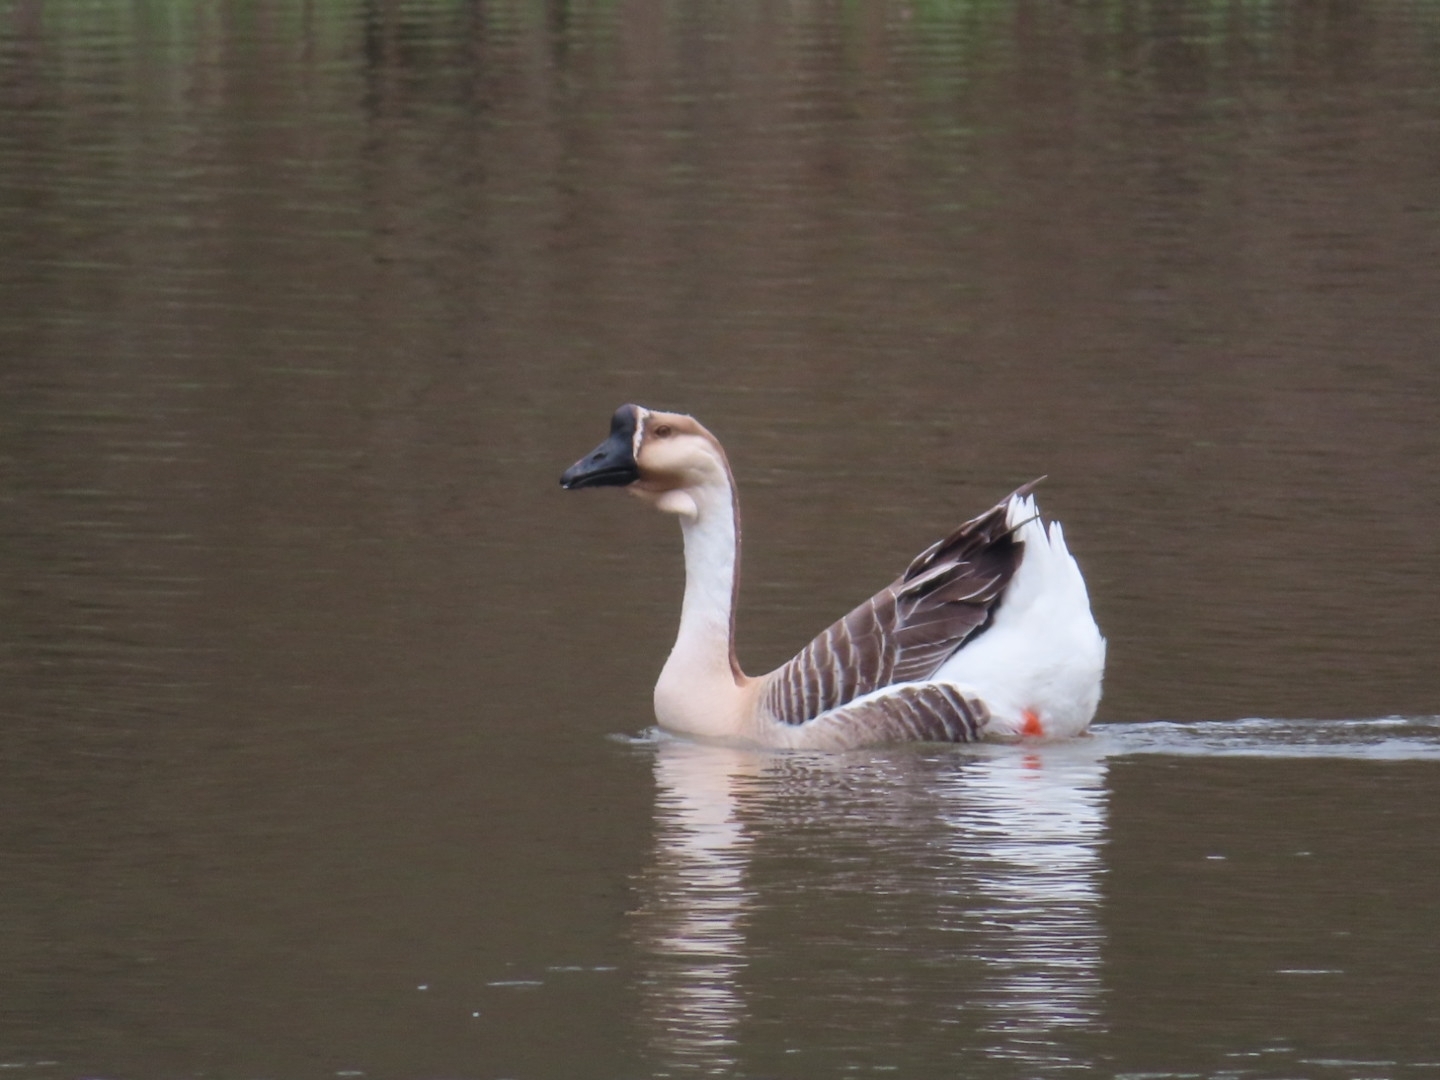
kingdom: Animalia
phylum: Chordata
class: Aves
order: Anseriformes
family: Anatidae
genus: Anser
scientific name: Anser cygnoides
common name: Swan goose
